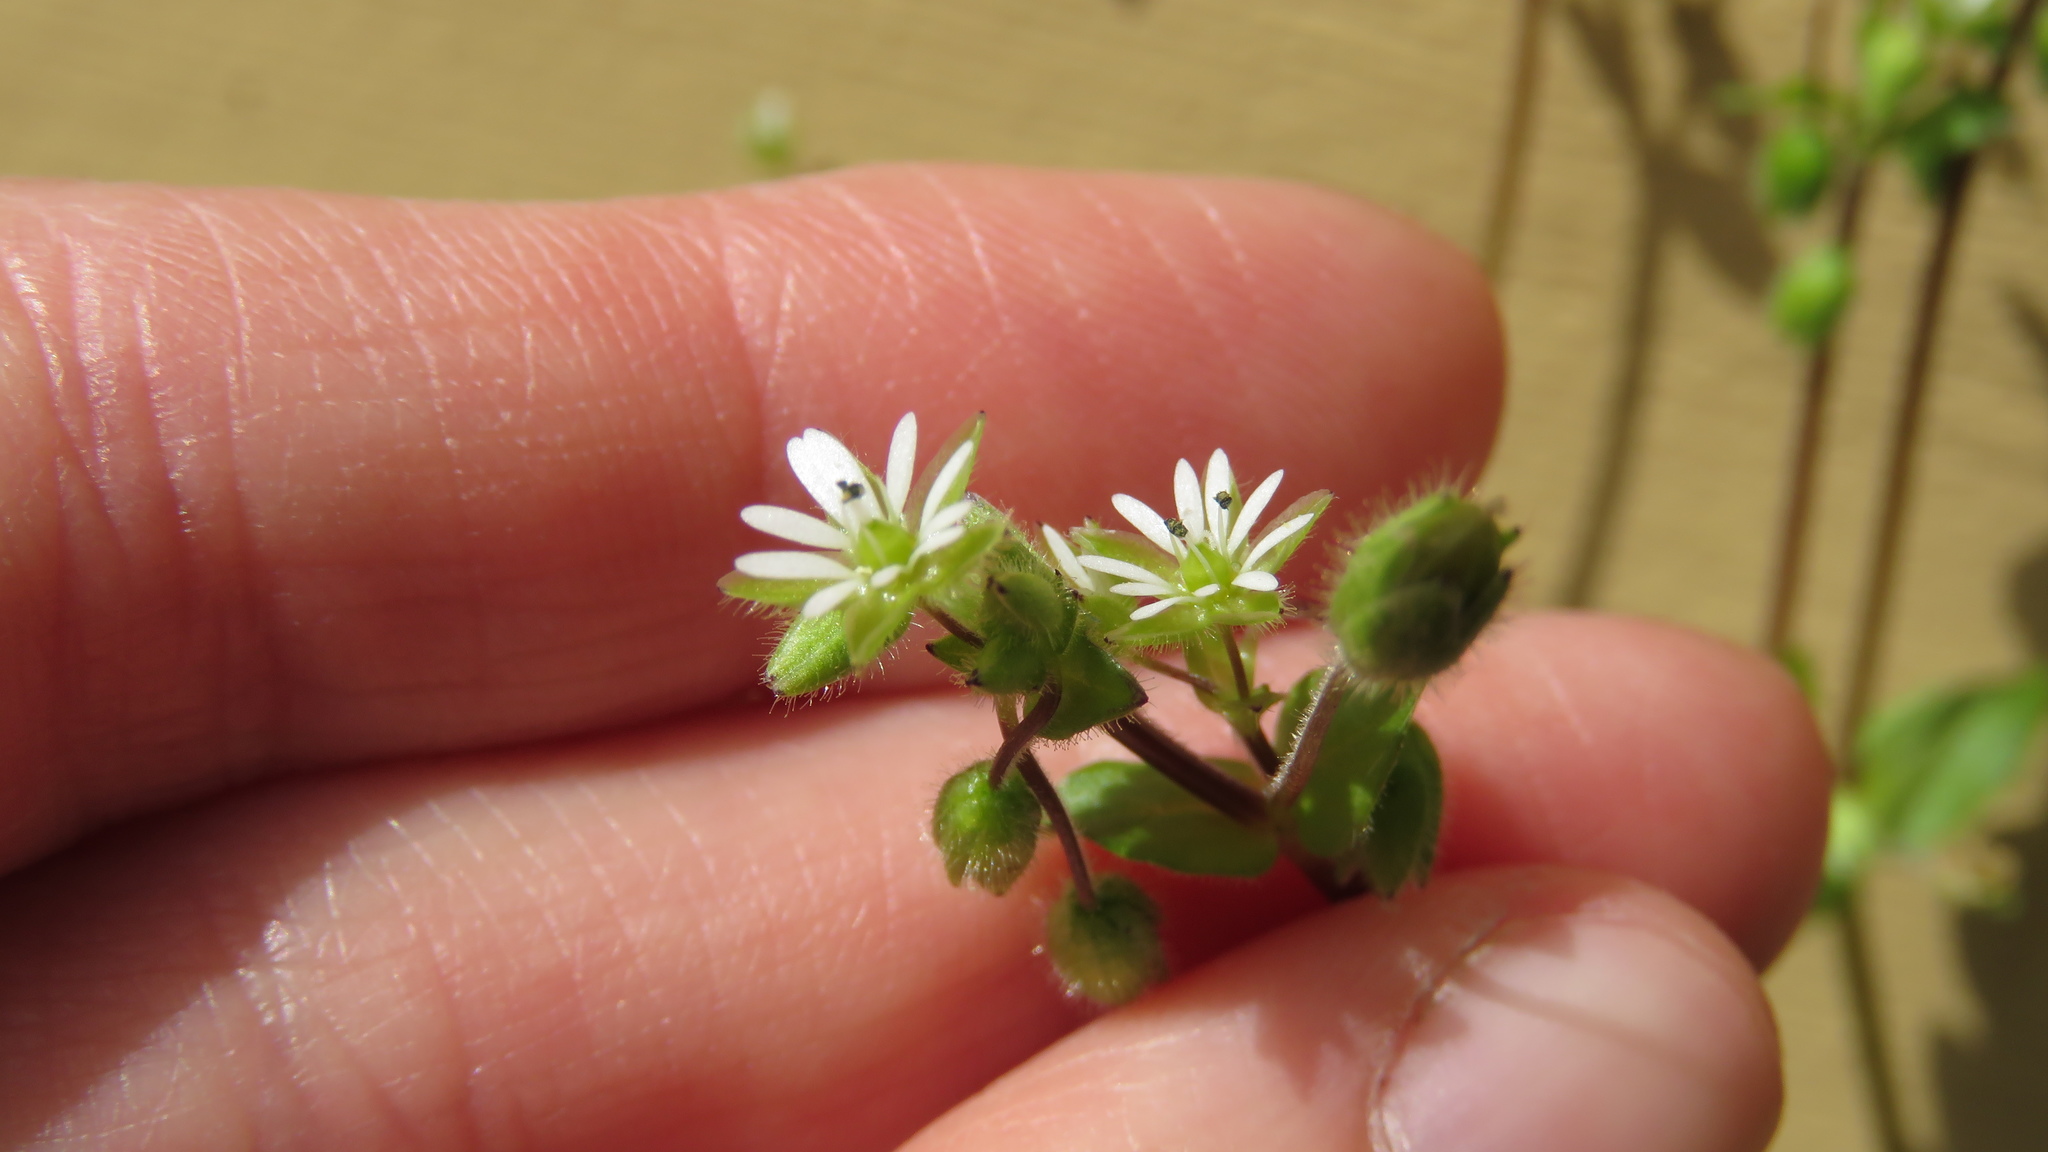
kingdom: Plantae
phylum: Tracheophyta
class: Magnoliopsida
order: Caryophyllales
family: Caryophyllaceae
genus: Stellaria
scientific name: Stellaria media
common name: Common chickweed
